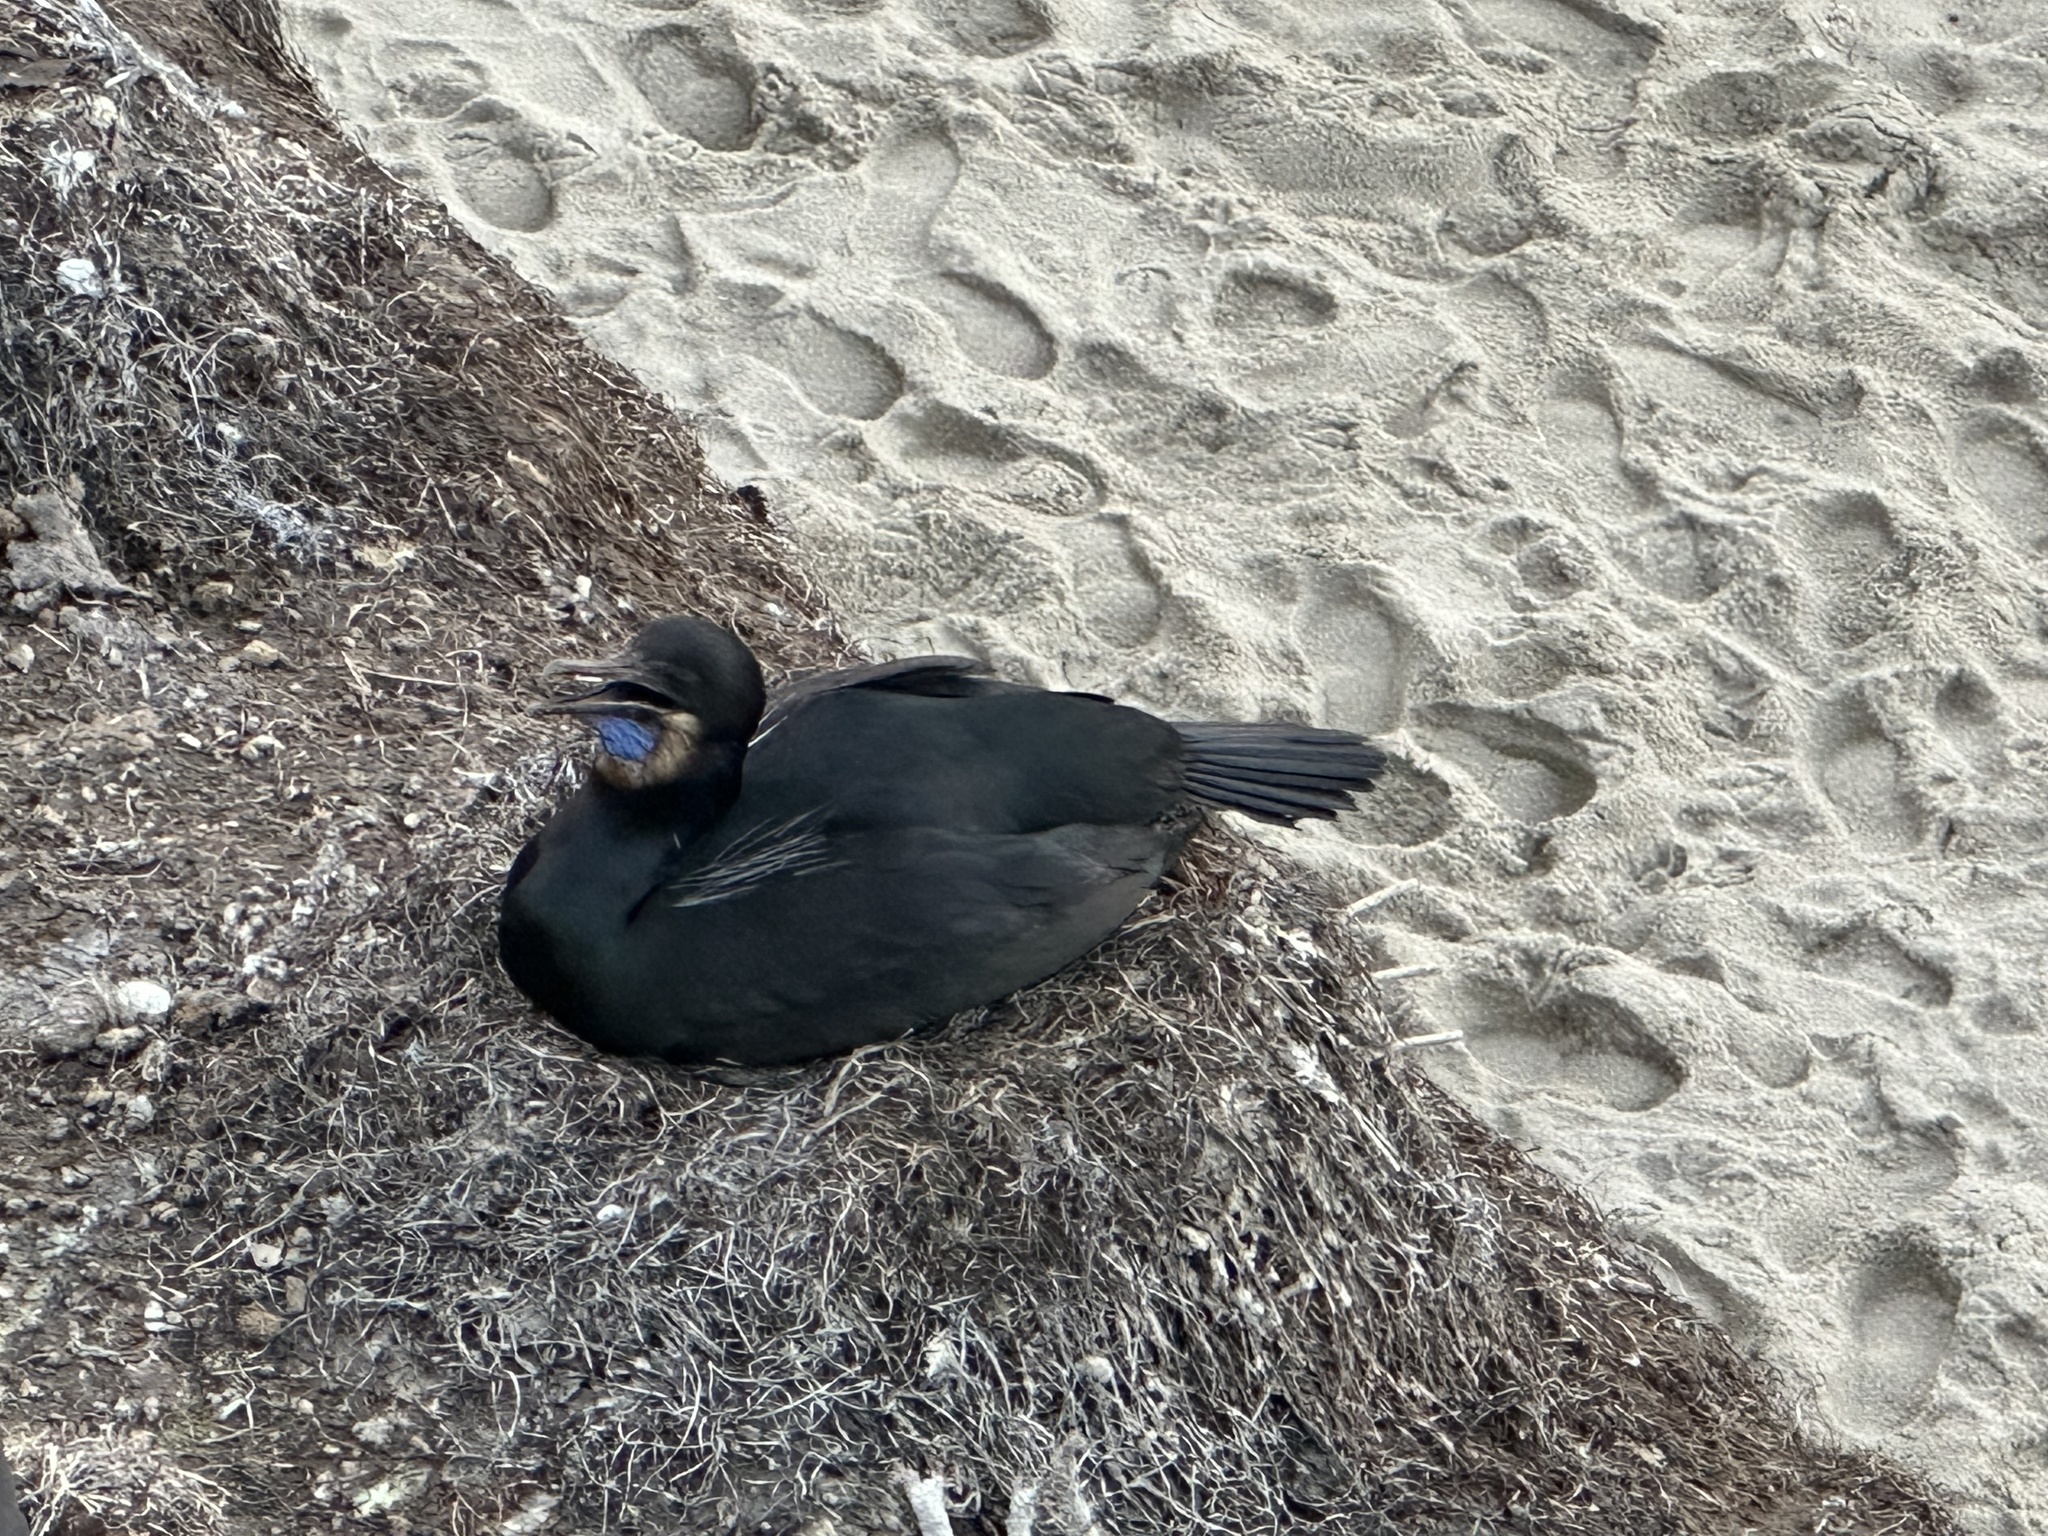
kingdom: Animalia
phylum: Chordata
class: Aves
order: Suliformes
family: Phalacrocoracidae
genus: Urile
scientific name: Urile penicillatus
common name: Brandt's cormorant
